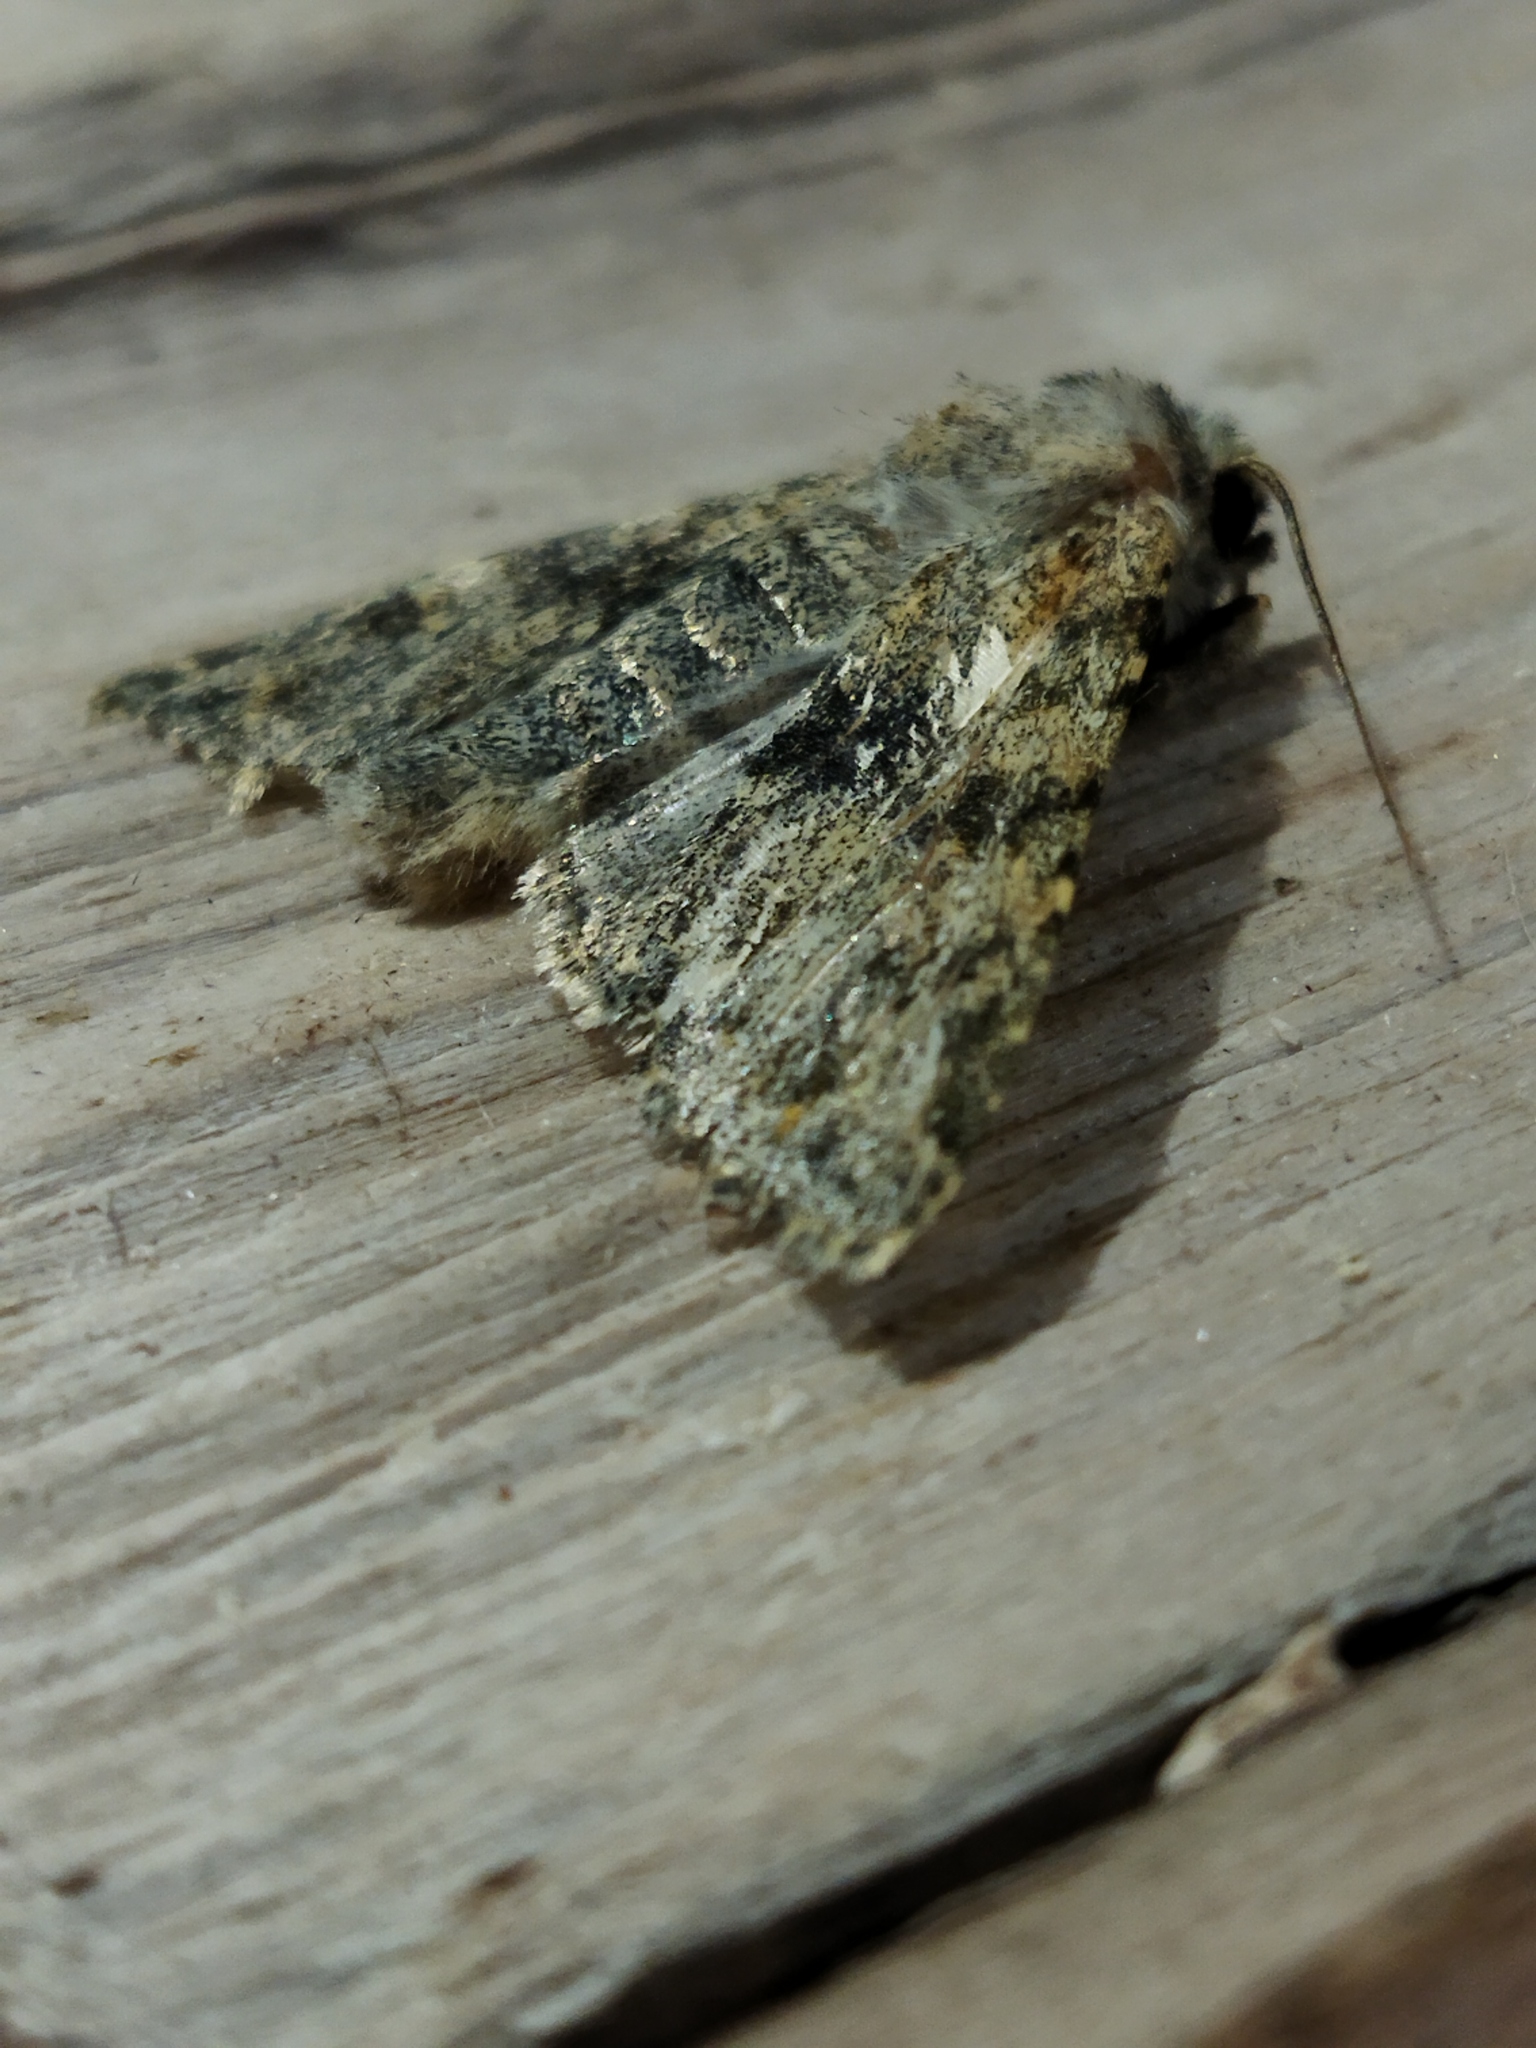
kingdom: Animalia
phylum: Arthropoda
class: Insecta
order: Lepidoptera
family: Noctuidae
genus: Polymixis
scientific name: Polymixis rufocincta
